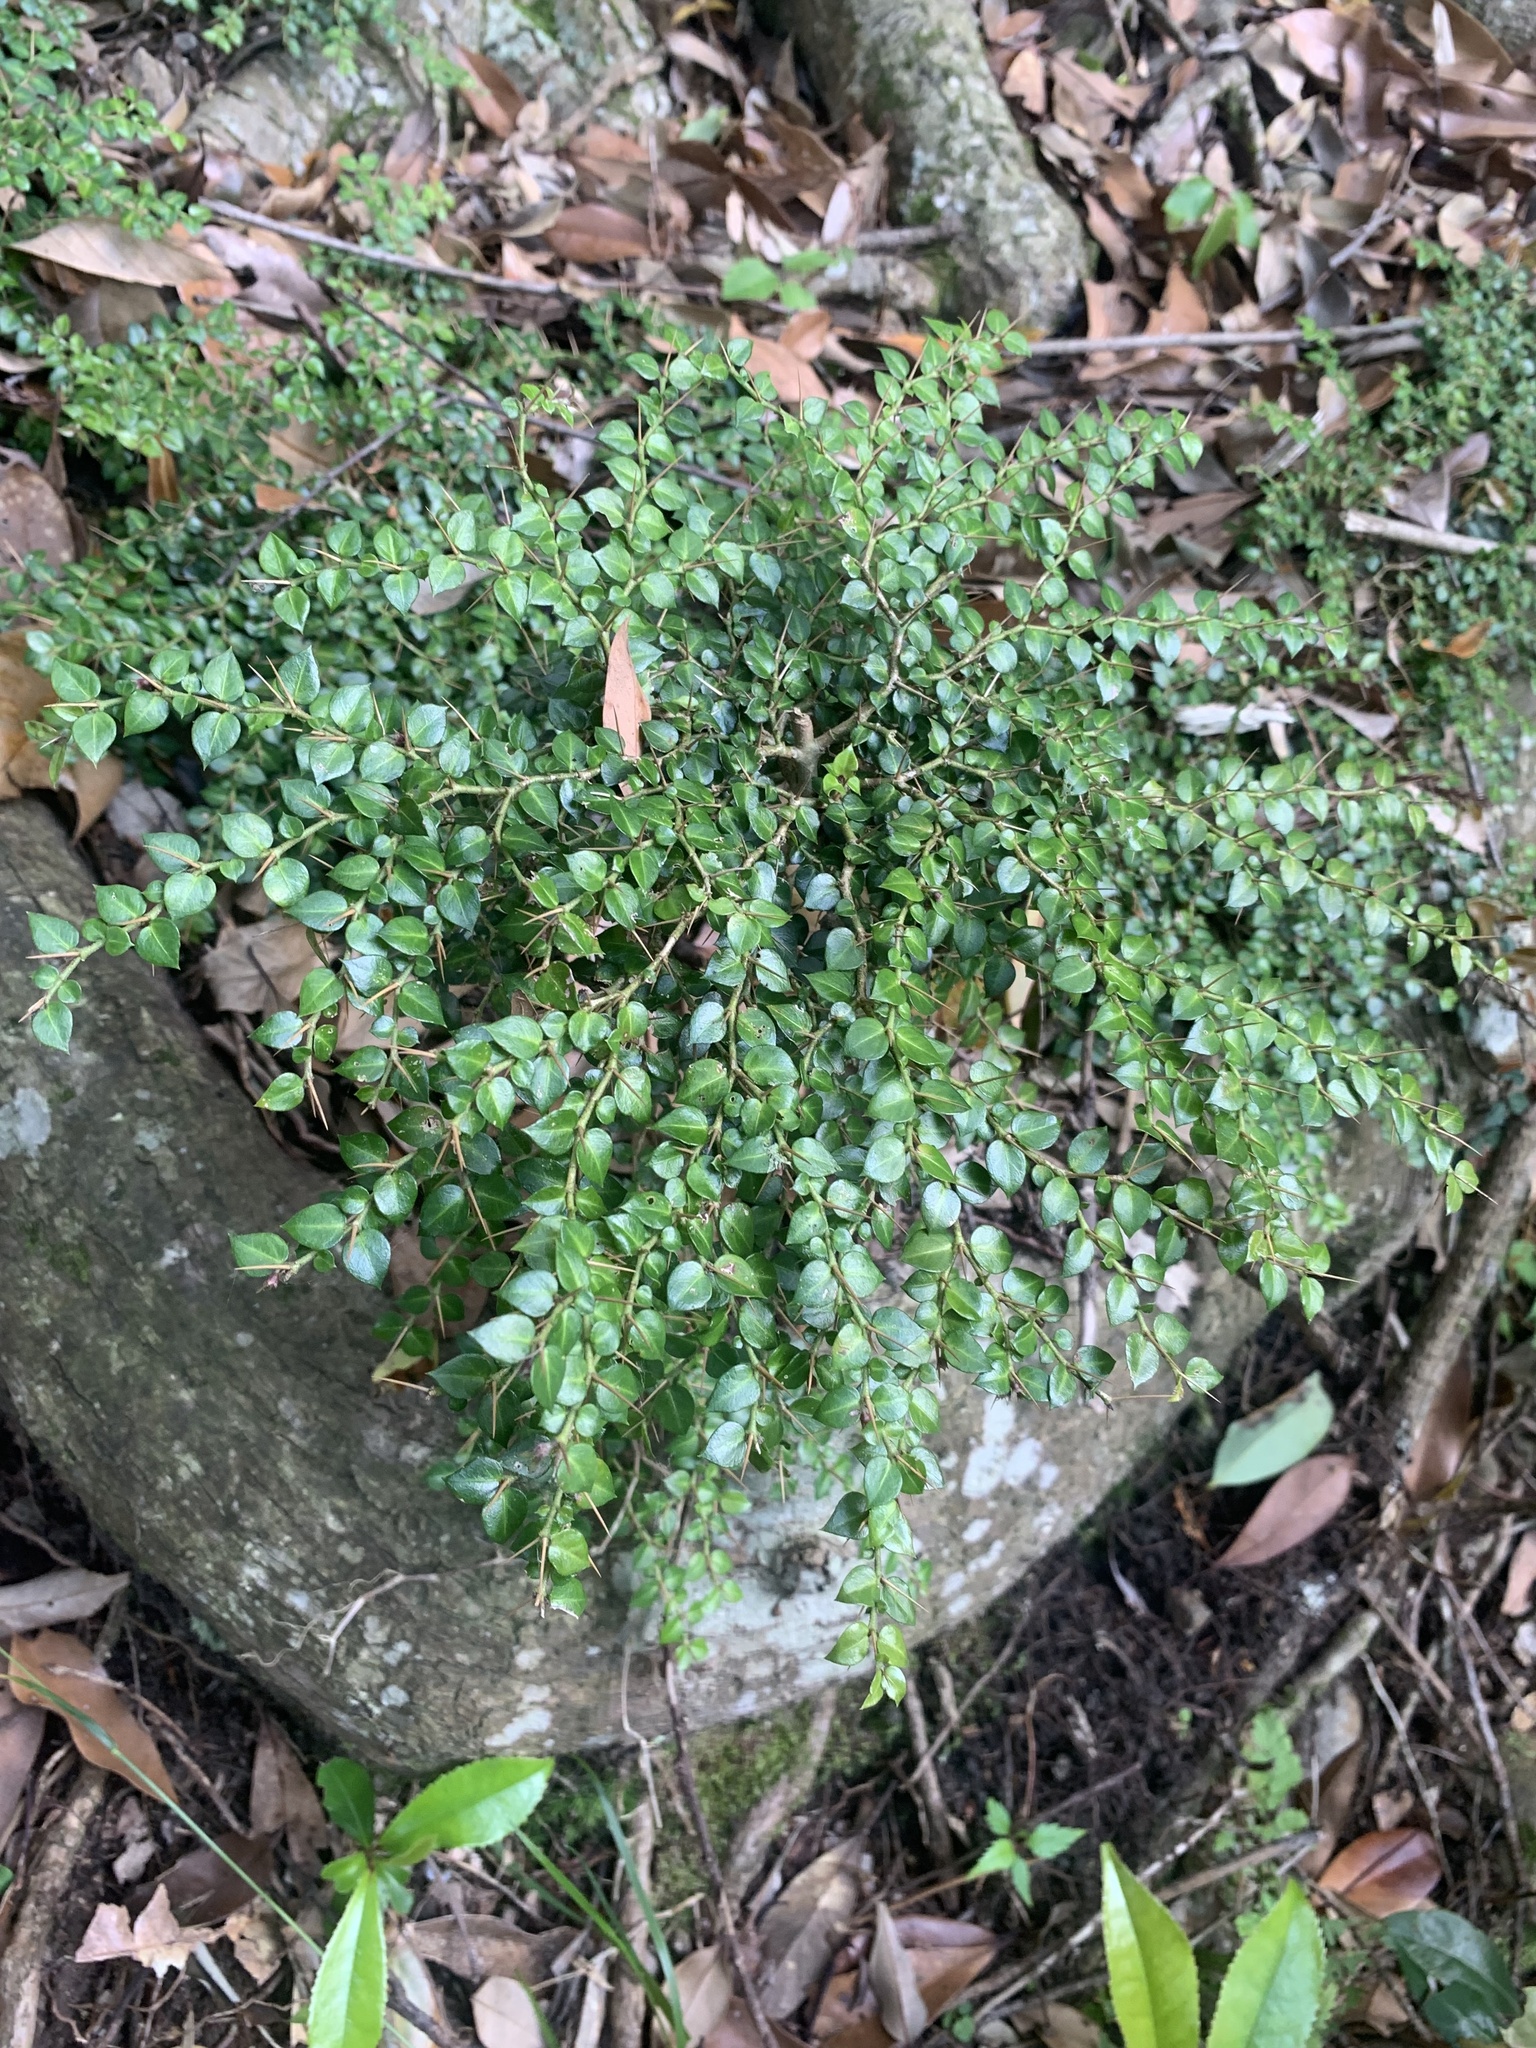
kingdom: Plantae
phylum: Tracheophyta
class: Magnoliopsida
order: Gentianales
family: Rubiaceae
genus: Damnacanthus
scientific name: Damnacanthus indicus
